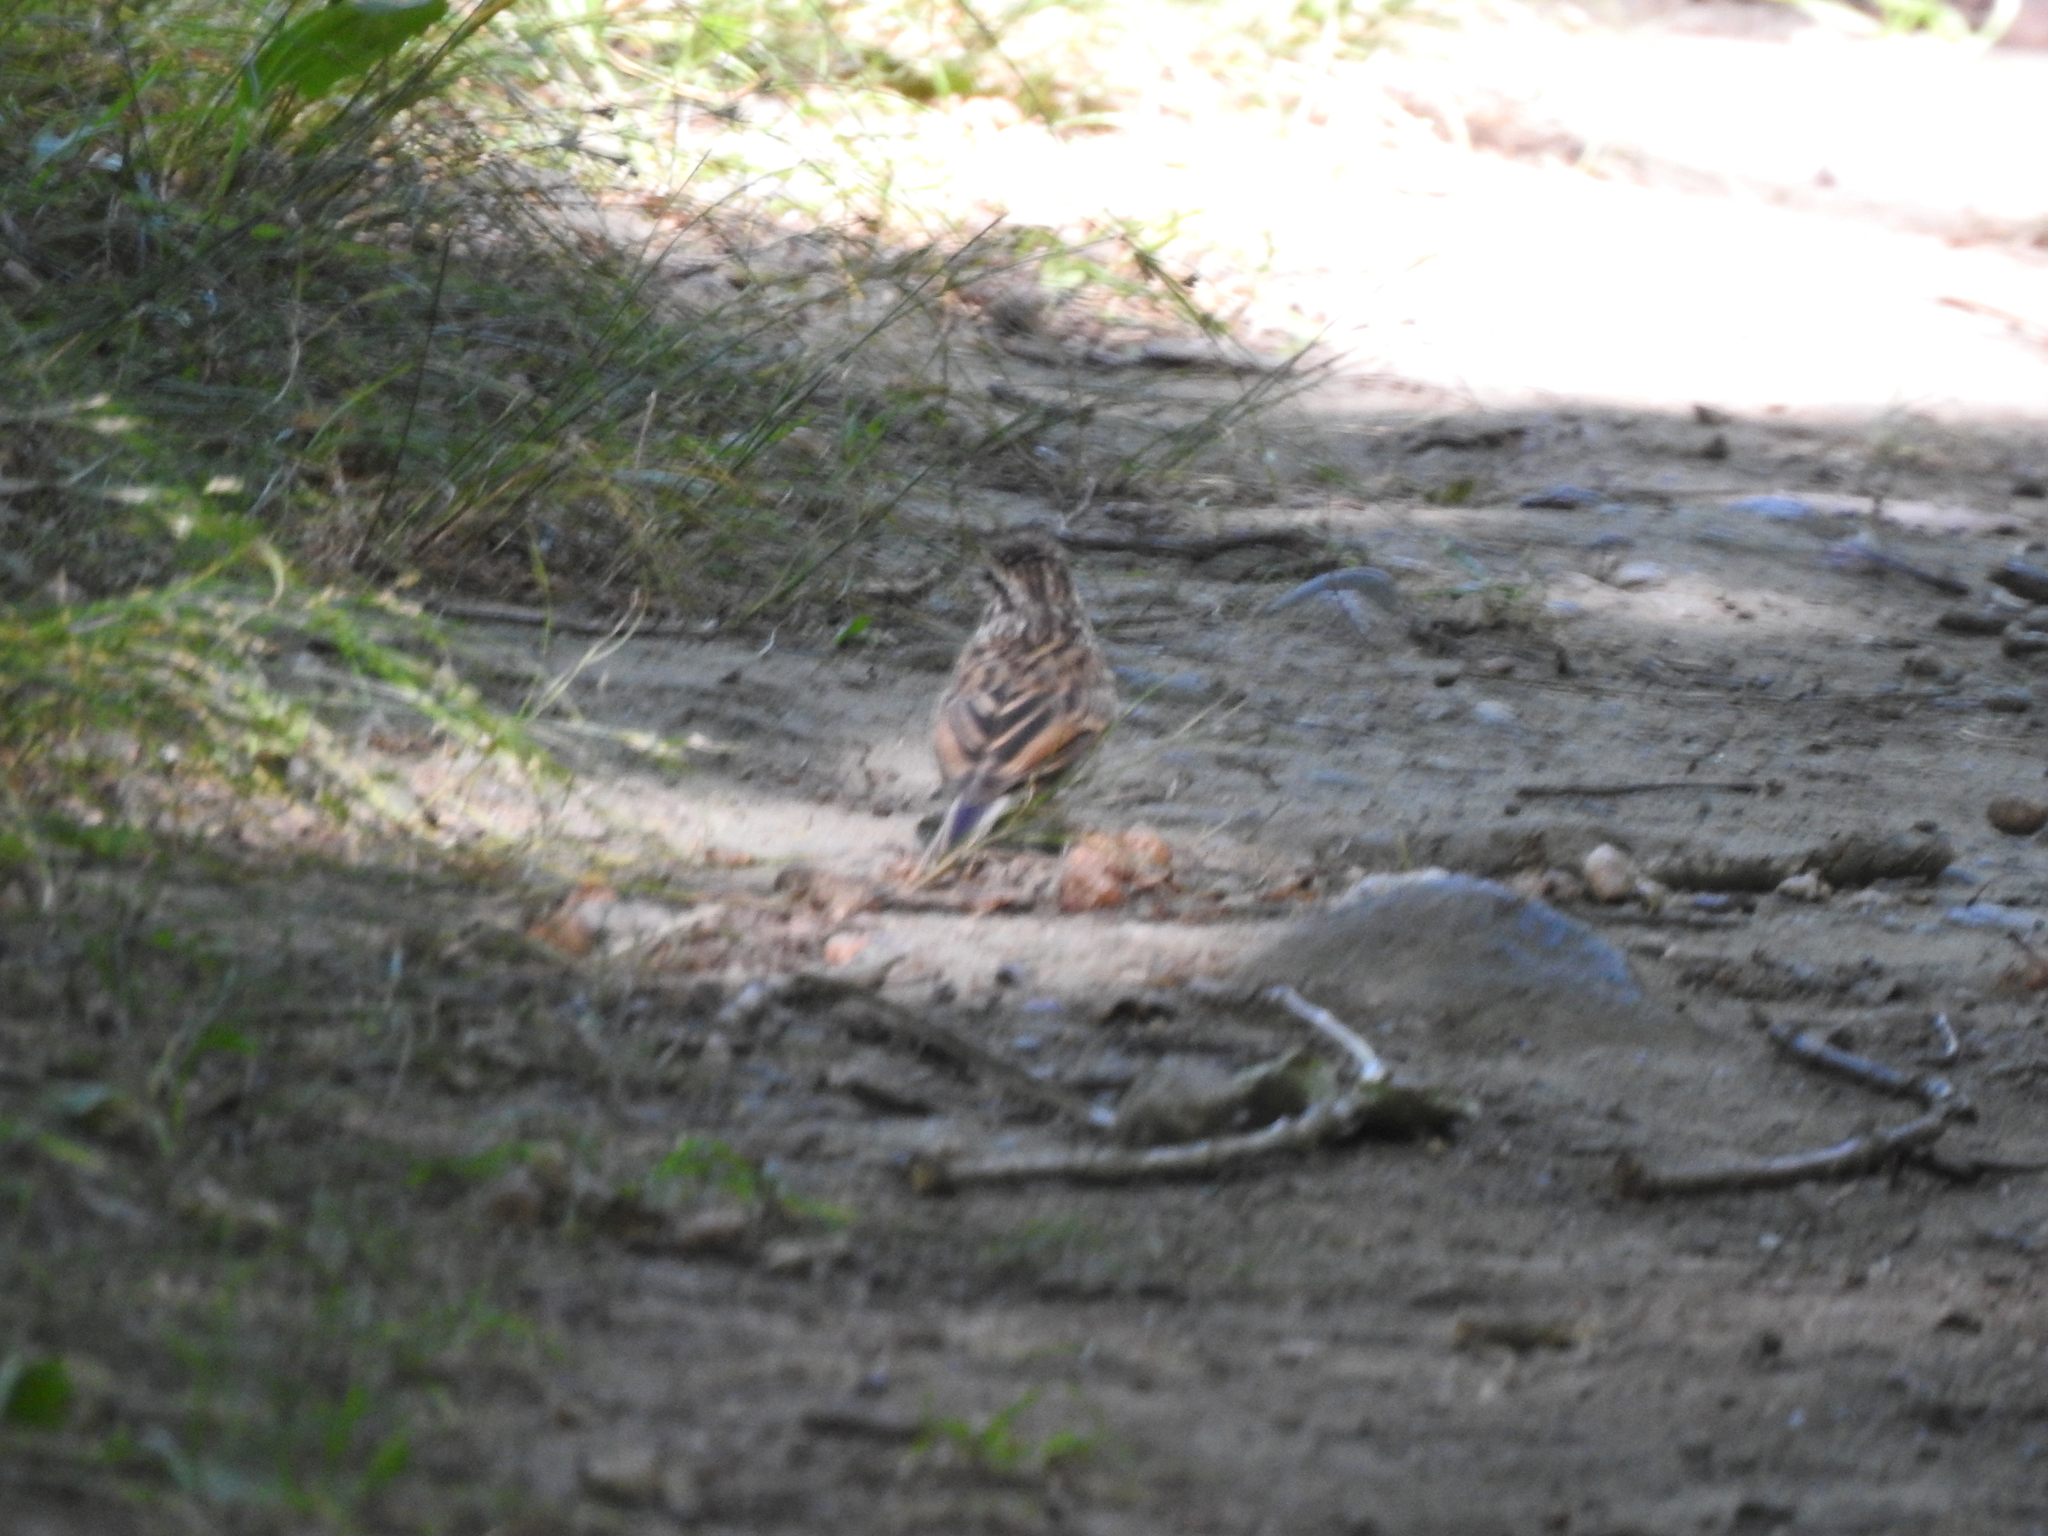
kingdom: Animalia
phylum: Chordata
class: Aves
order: Passeriformes
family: Passerellidae
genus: Spizella
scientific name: Spizella passerina
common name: Chipping sparrow
